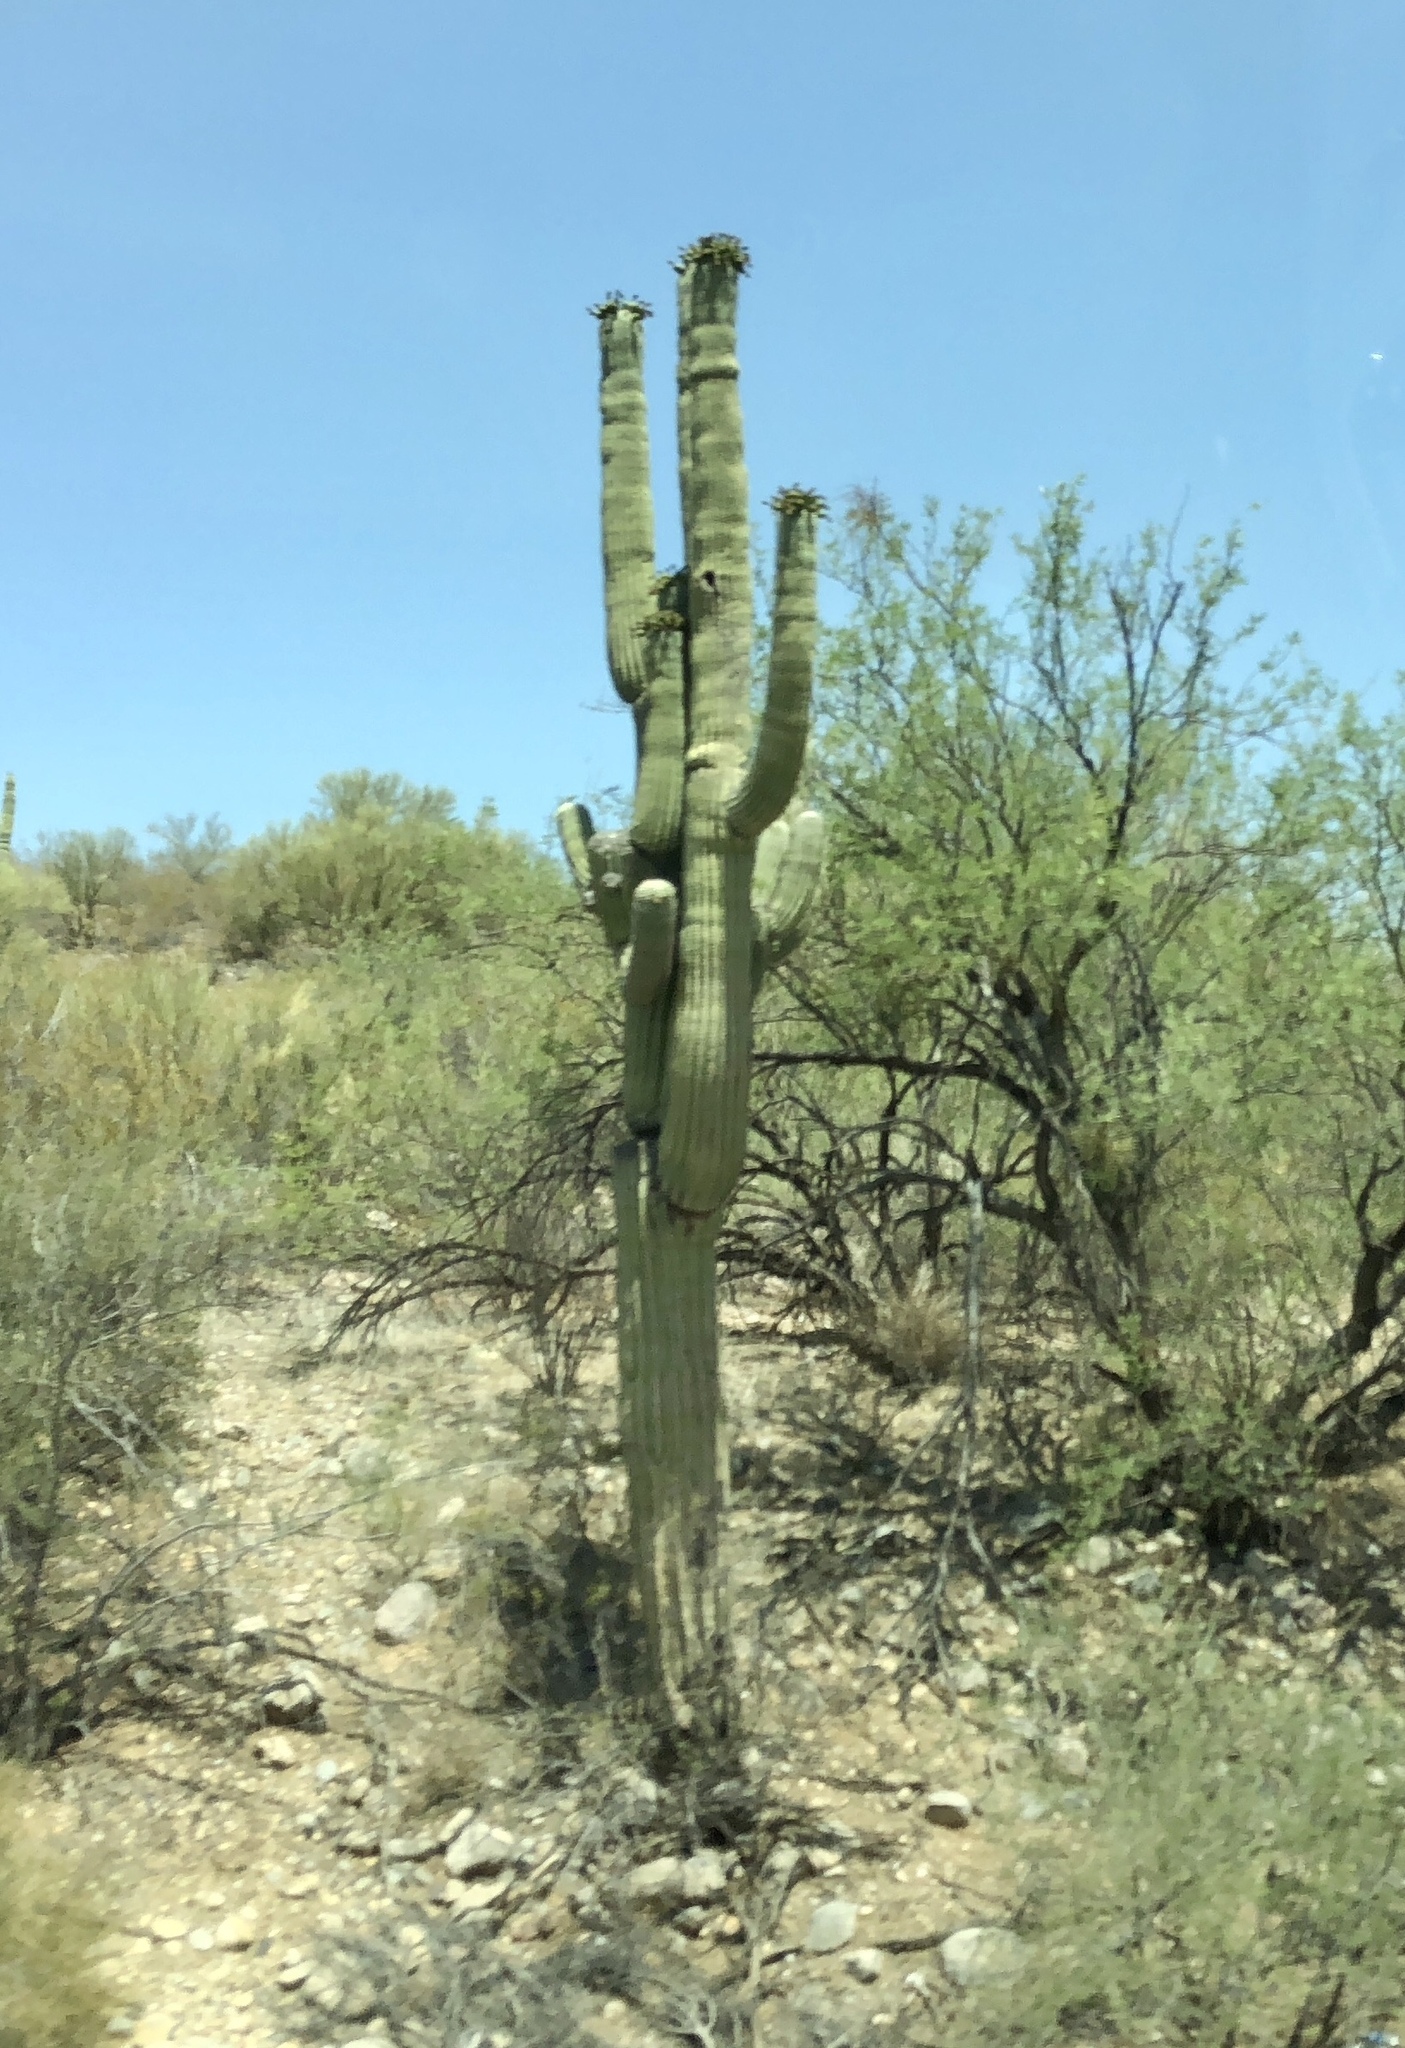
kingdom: Plantae
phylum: Tracheophyta
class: Magnoliopsida
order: Caryophyllales
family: Cactaceae
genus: Carnegiea
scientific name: Carnegiea gigantea
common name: Saguaro
